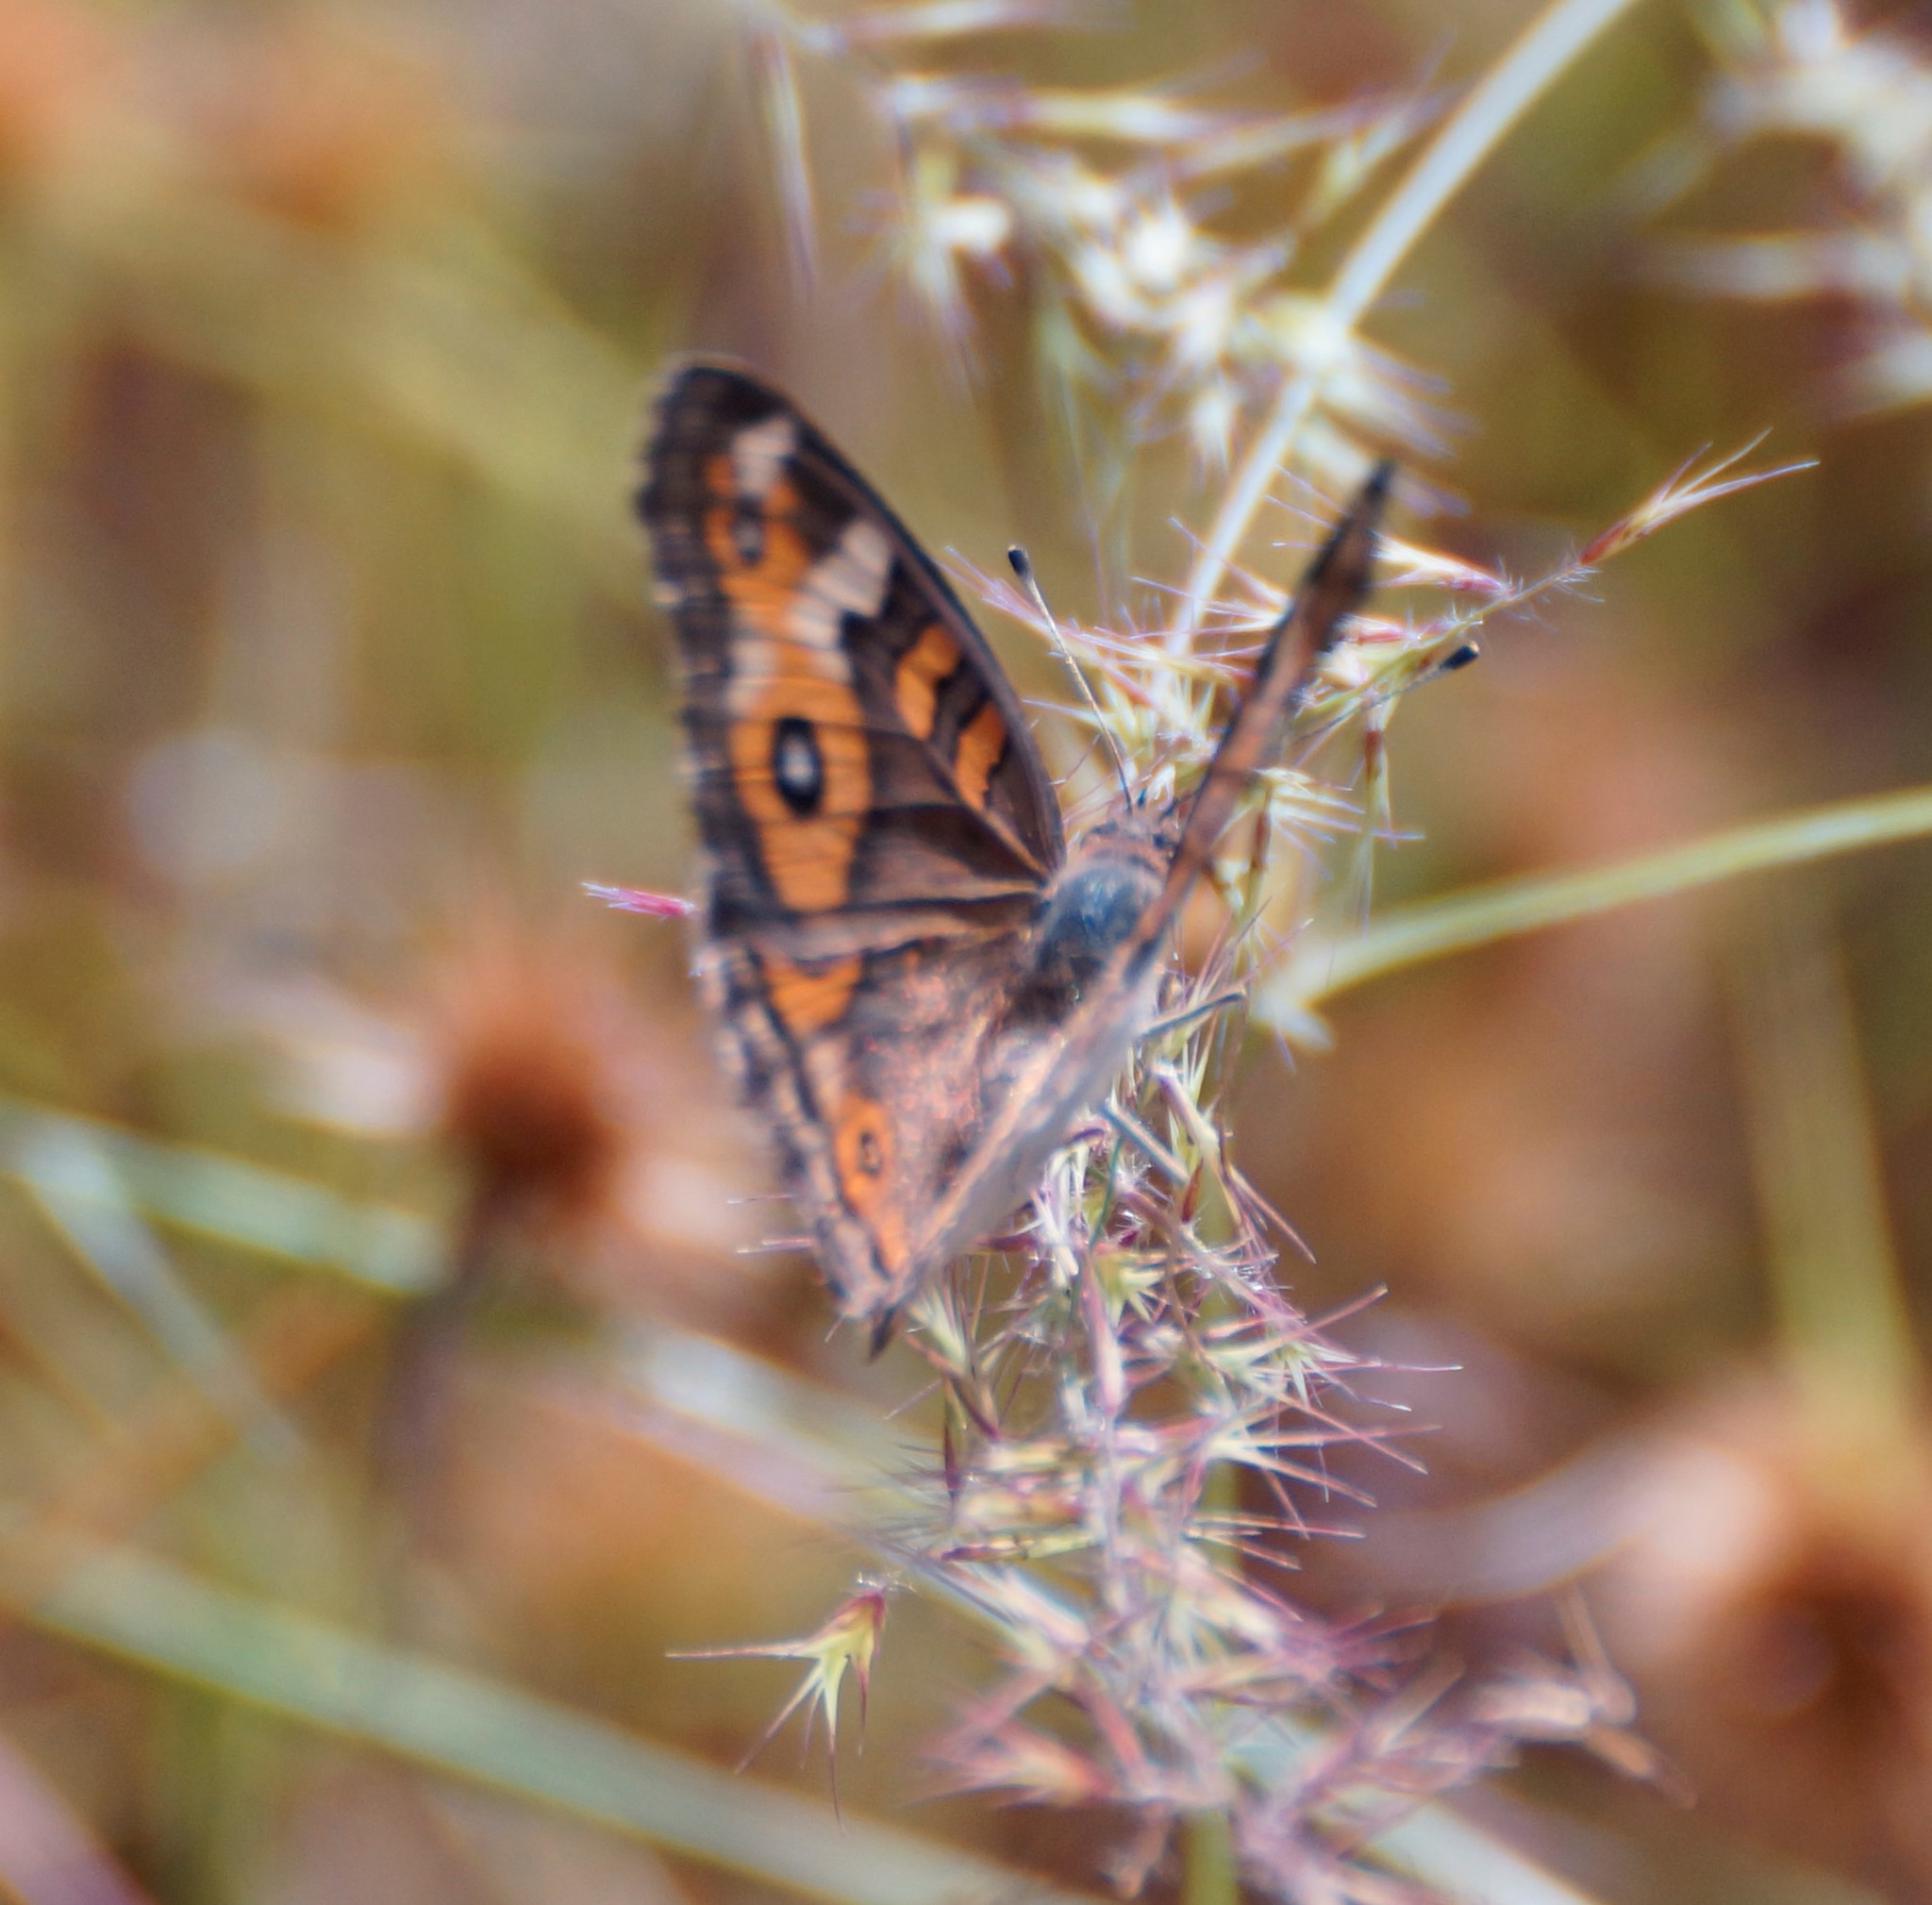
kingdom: Animalia
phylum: Arthropoda
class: Insecta
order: Lepidoptera
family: Nymphalidae
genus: Junonia
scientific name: Junonia villida
